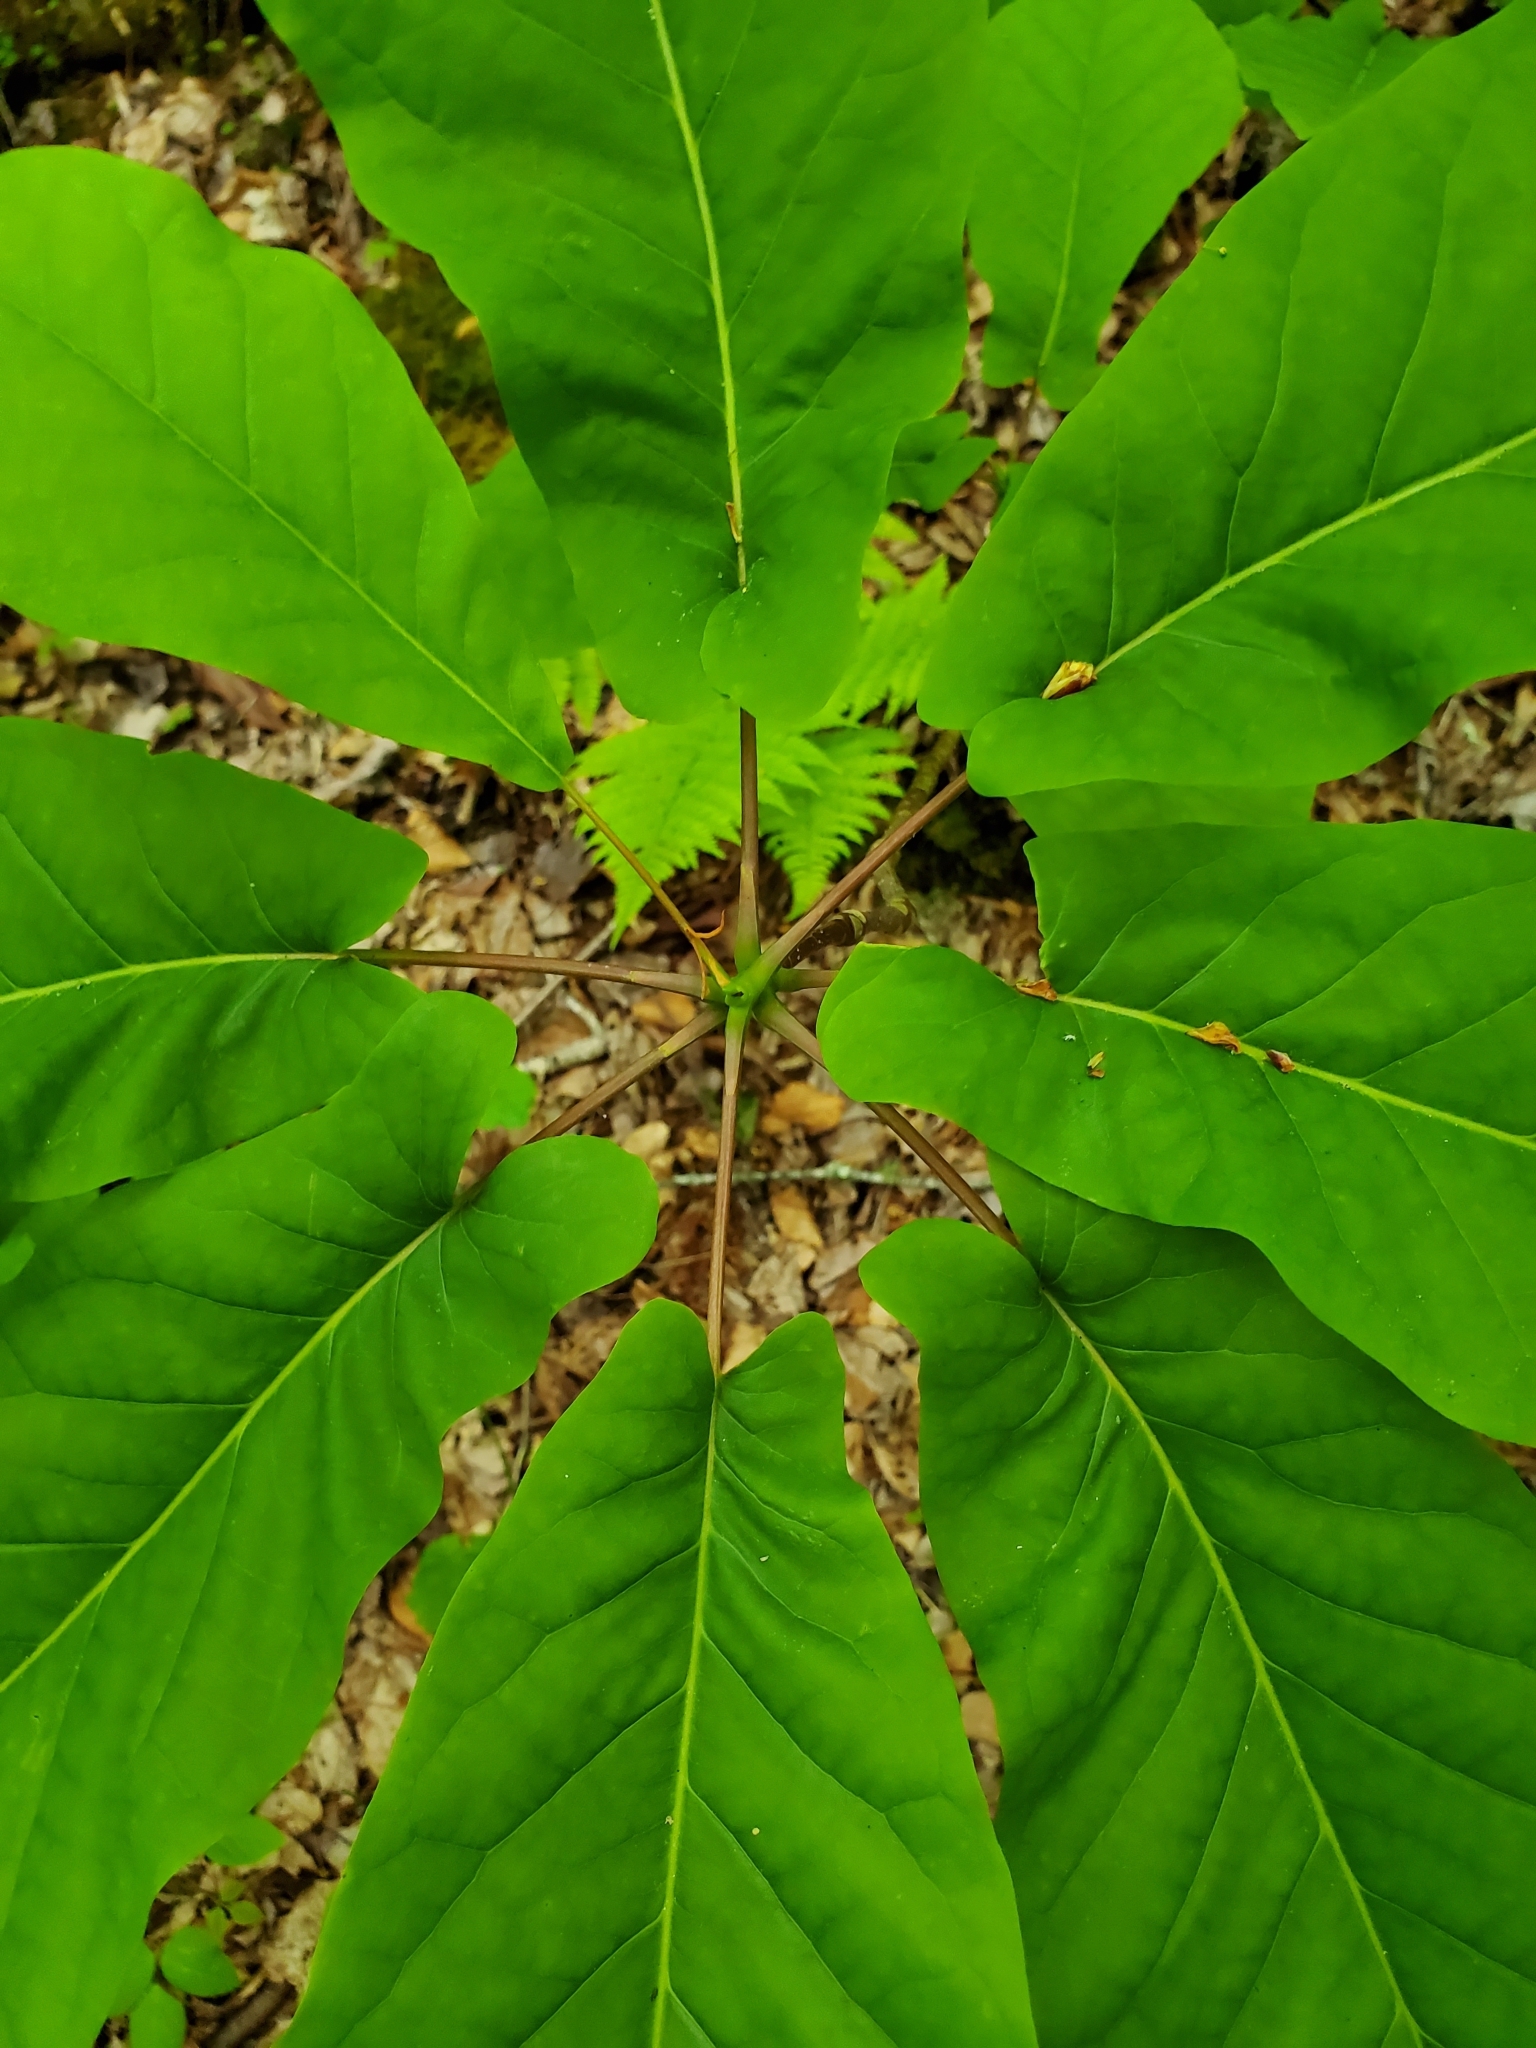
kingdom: Plantae
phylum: Tracheophyta
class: Magnoliopsida
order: Magnoliales
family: Magnoliaceae
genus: Magnolia
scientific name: Magnolia fraseri
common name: Fraser's magnolia
